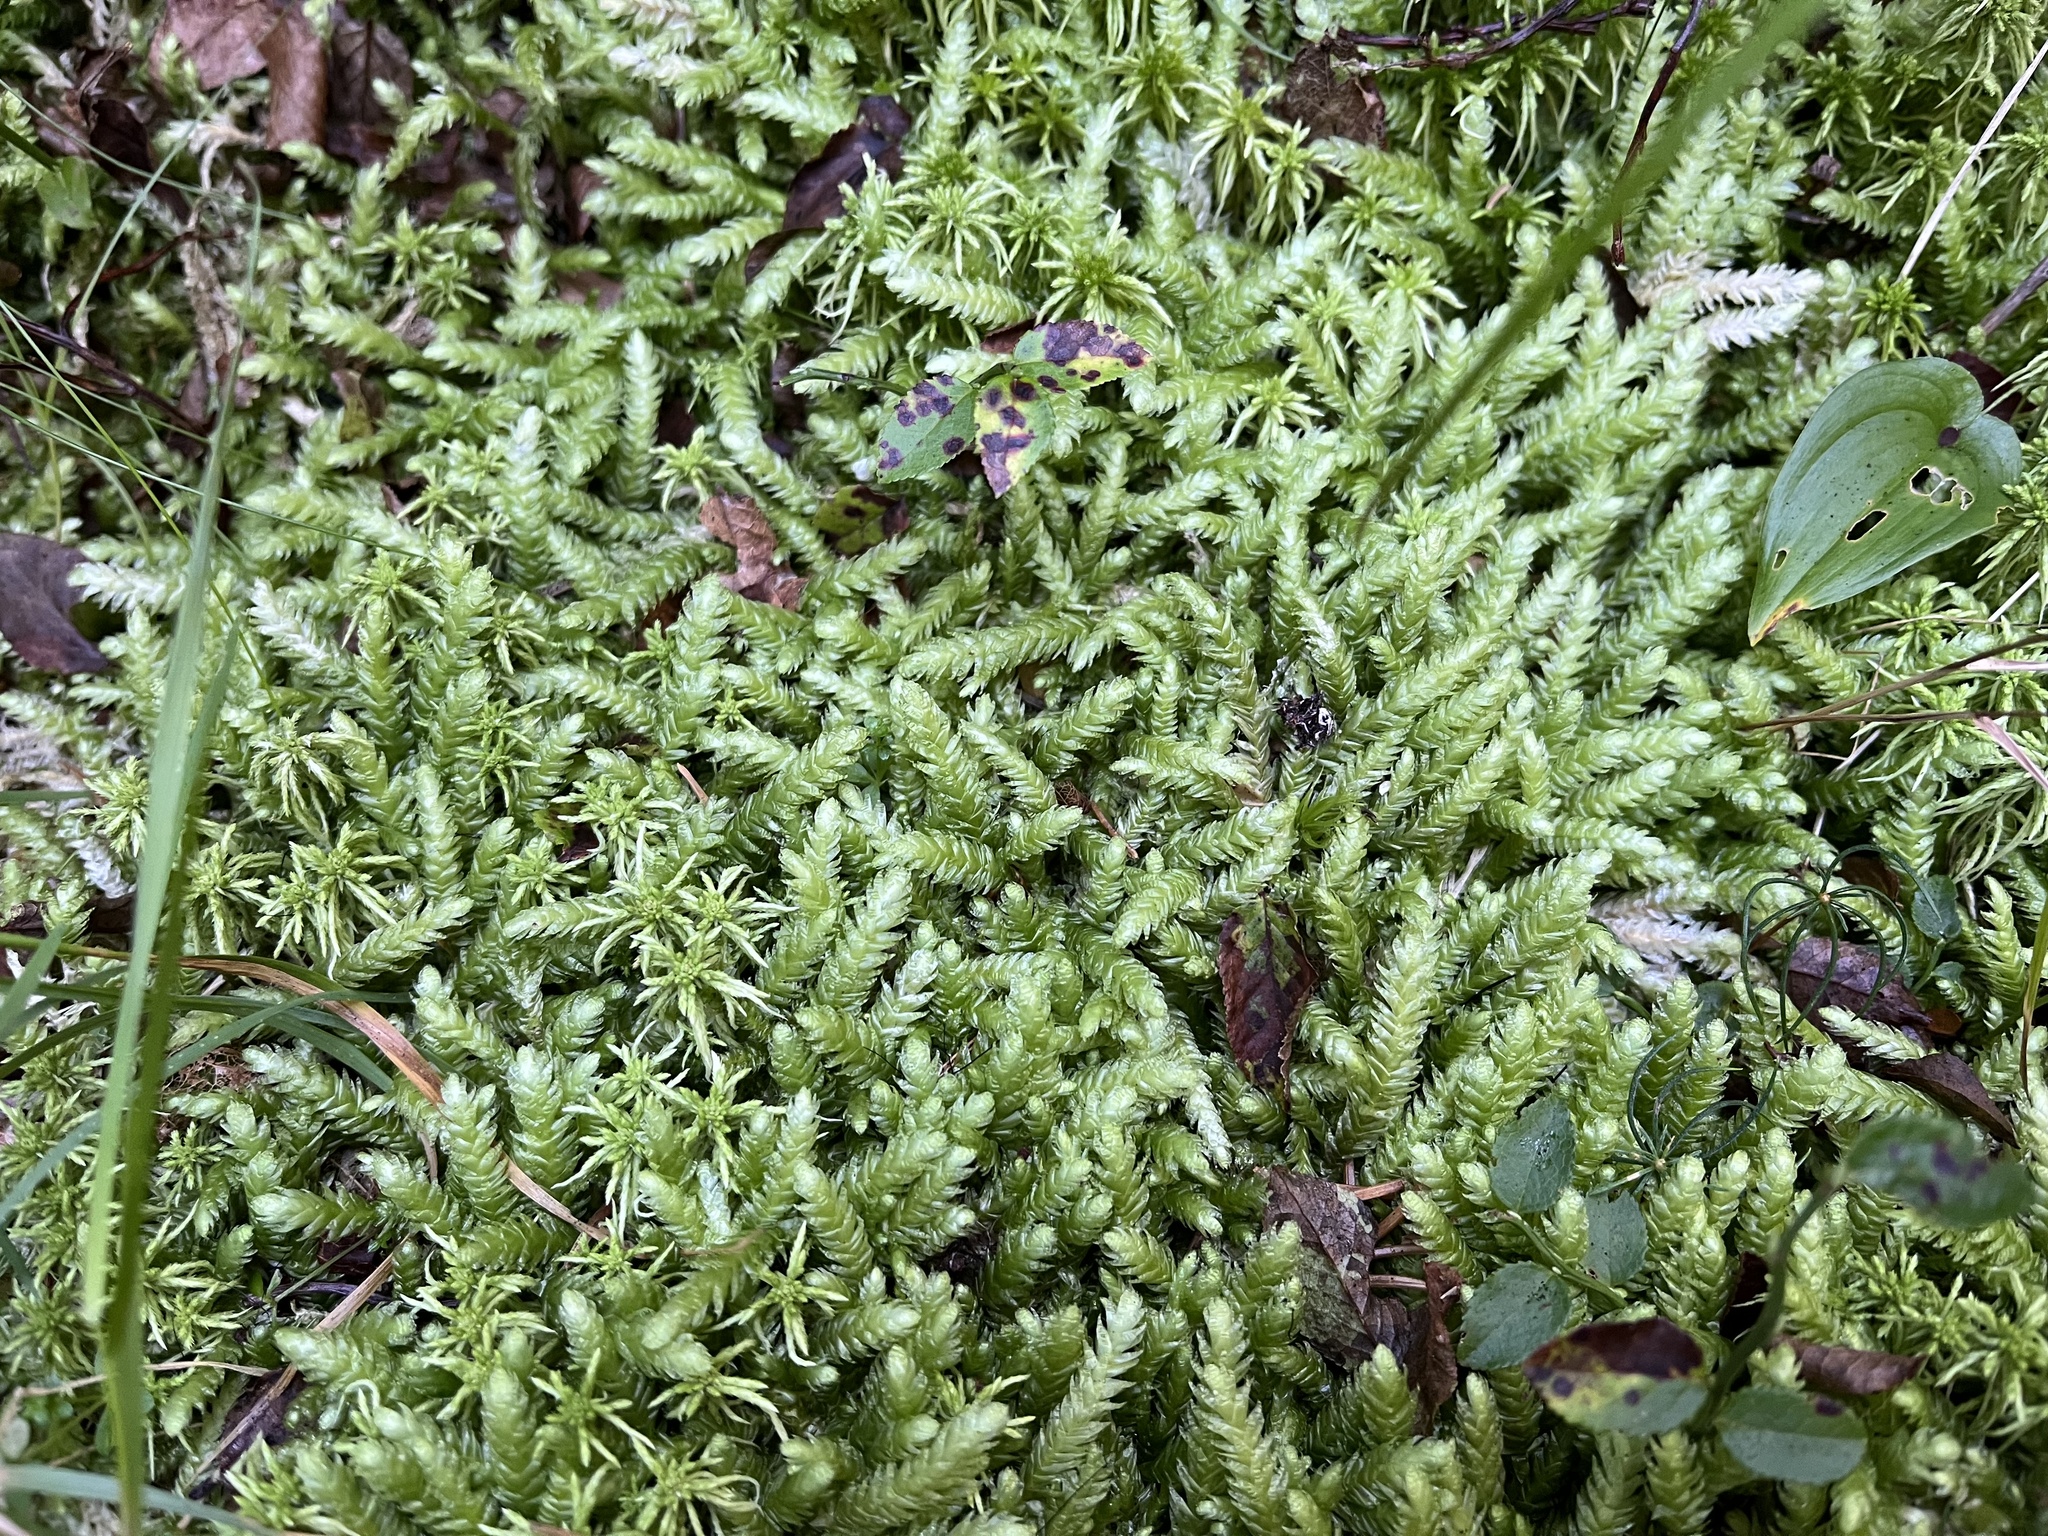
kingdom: Plantae
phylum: Bryophyta
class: Bryopsida
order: Hypnales
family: Plagiotheciaceae
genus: Plagiothecium
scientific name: Plagiothecium undulatum
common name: Waved silk-moss
